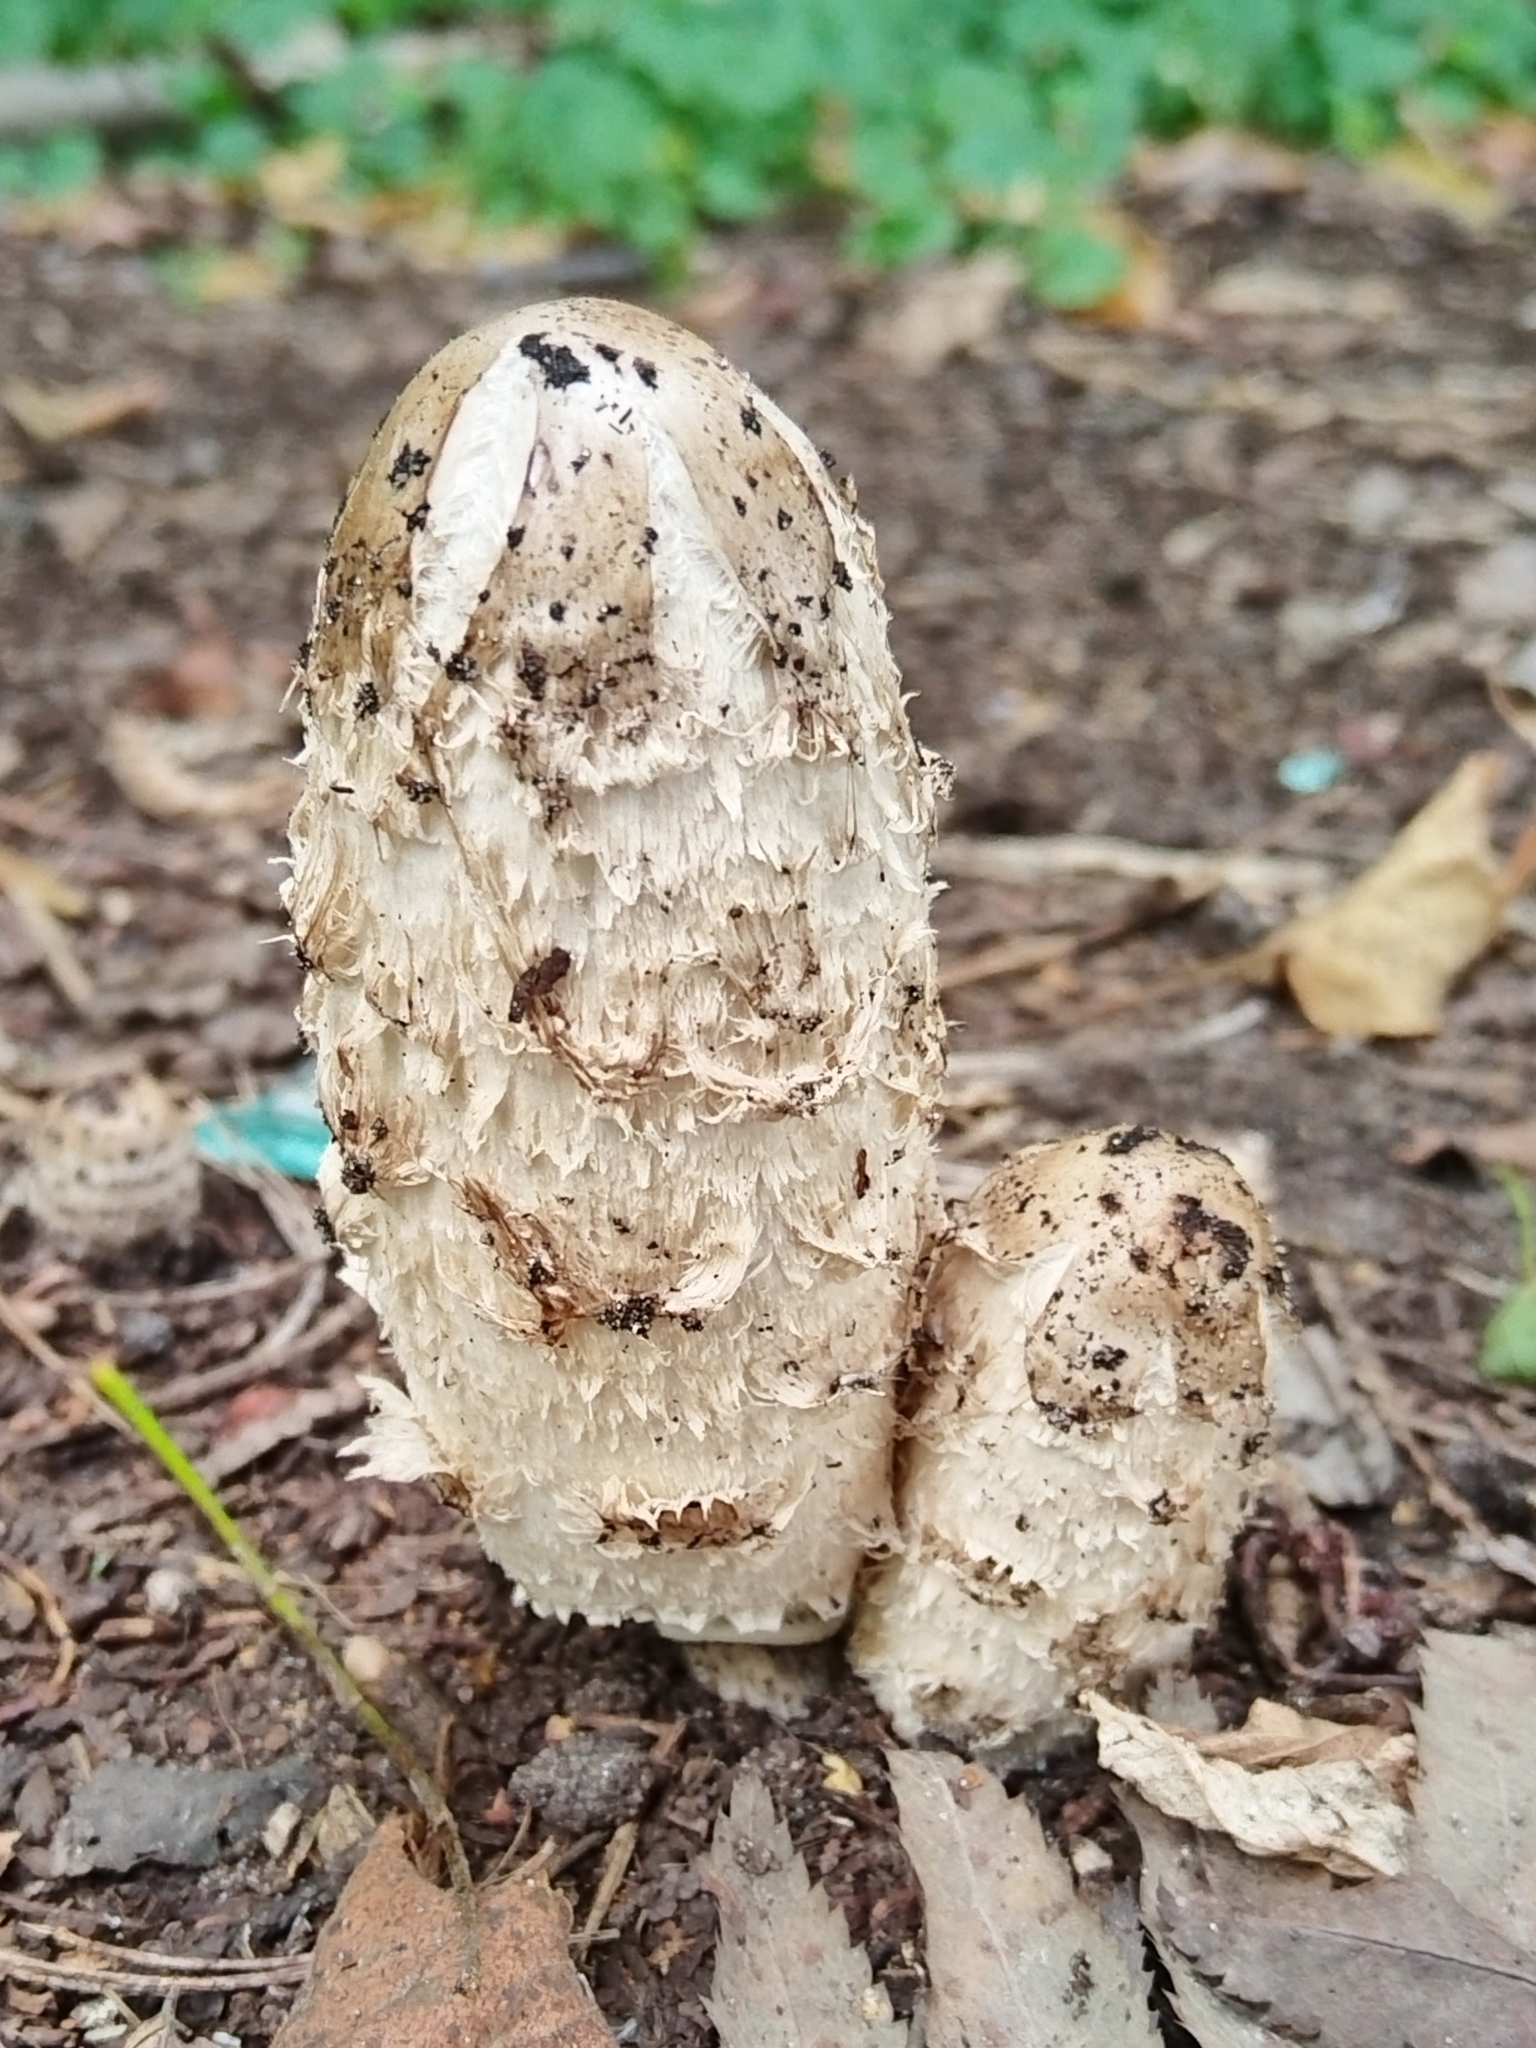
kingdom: Fungi
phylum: Basidiomycota
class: Agaricomycetes
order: Agaricales
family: Agaricaceae
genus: Coprinus
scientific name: Coprinus comatus
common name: Lawyer's wig
